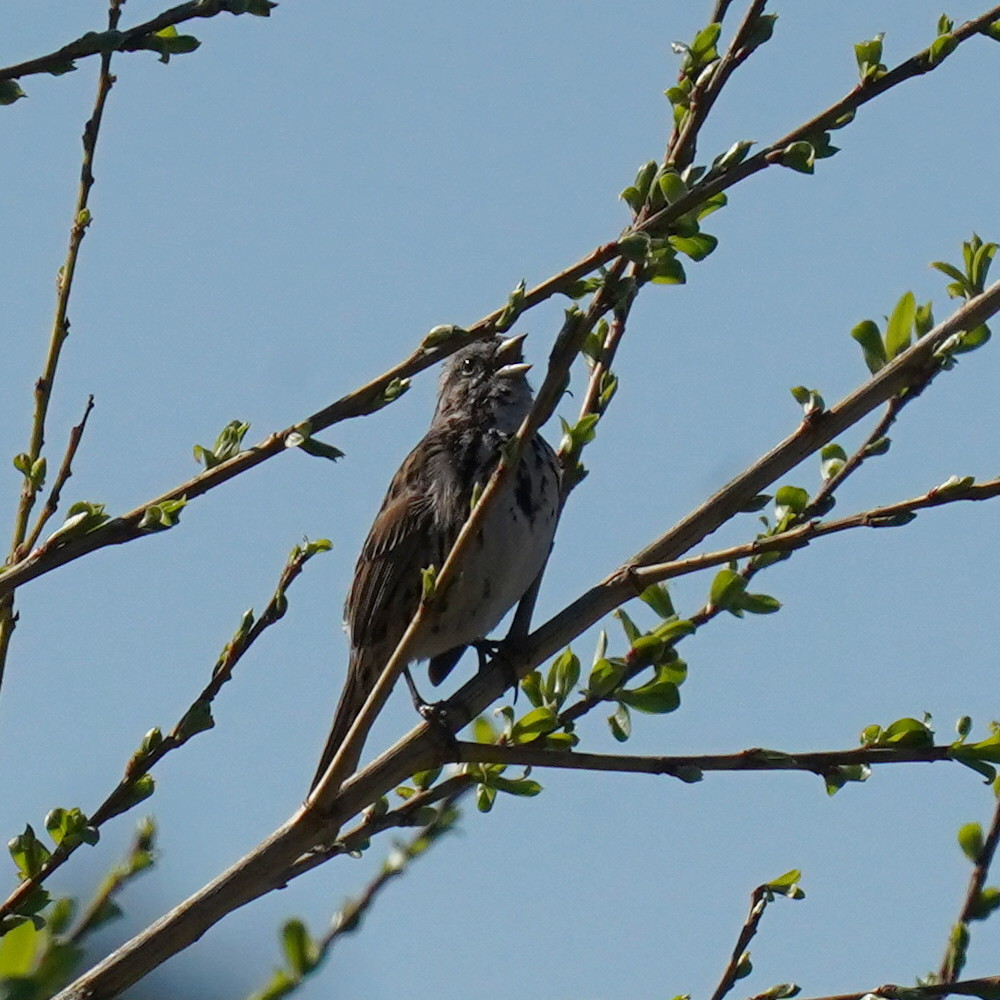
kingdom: Animalia
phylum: Chordata
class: Aves
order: Passeriformes
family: Passerellidae
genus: Melospiza
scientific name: Melospiza melodia
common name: Song sparrow
